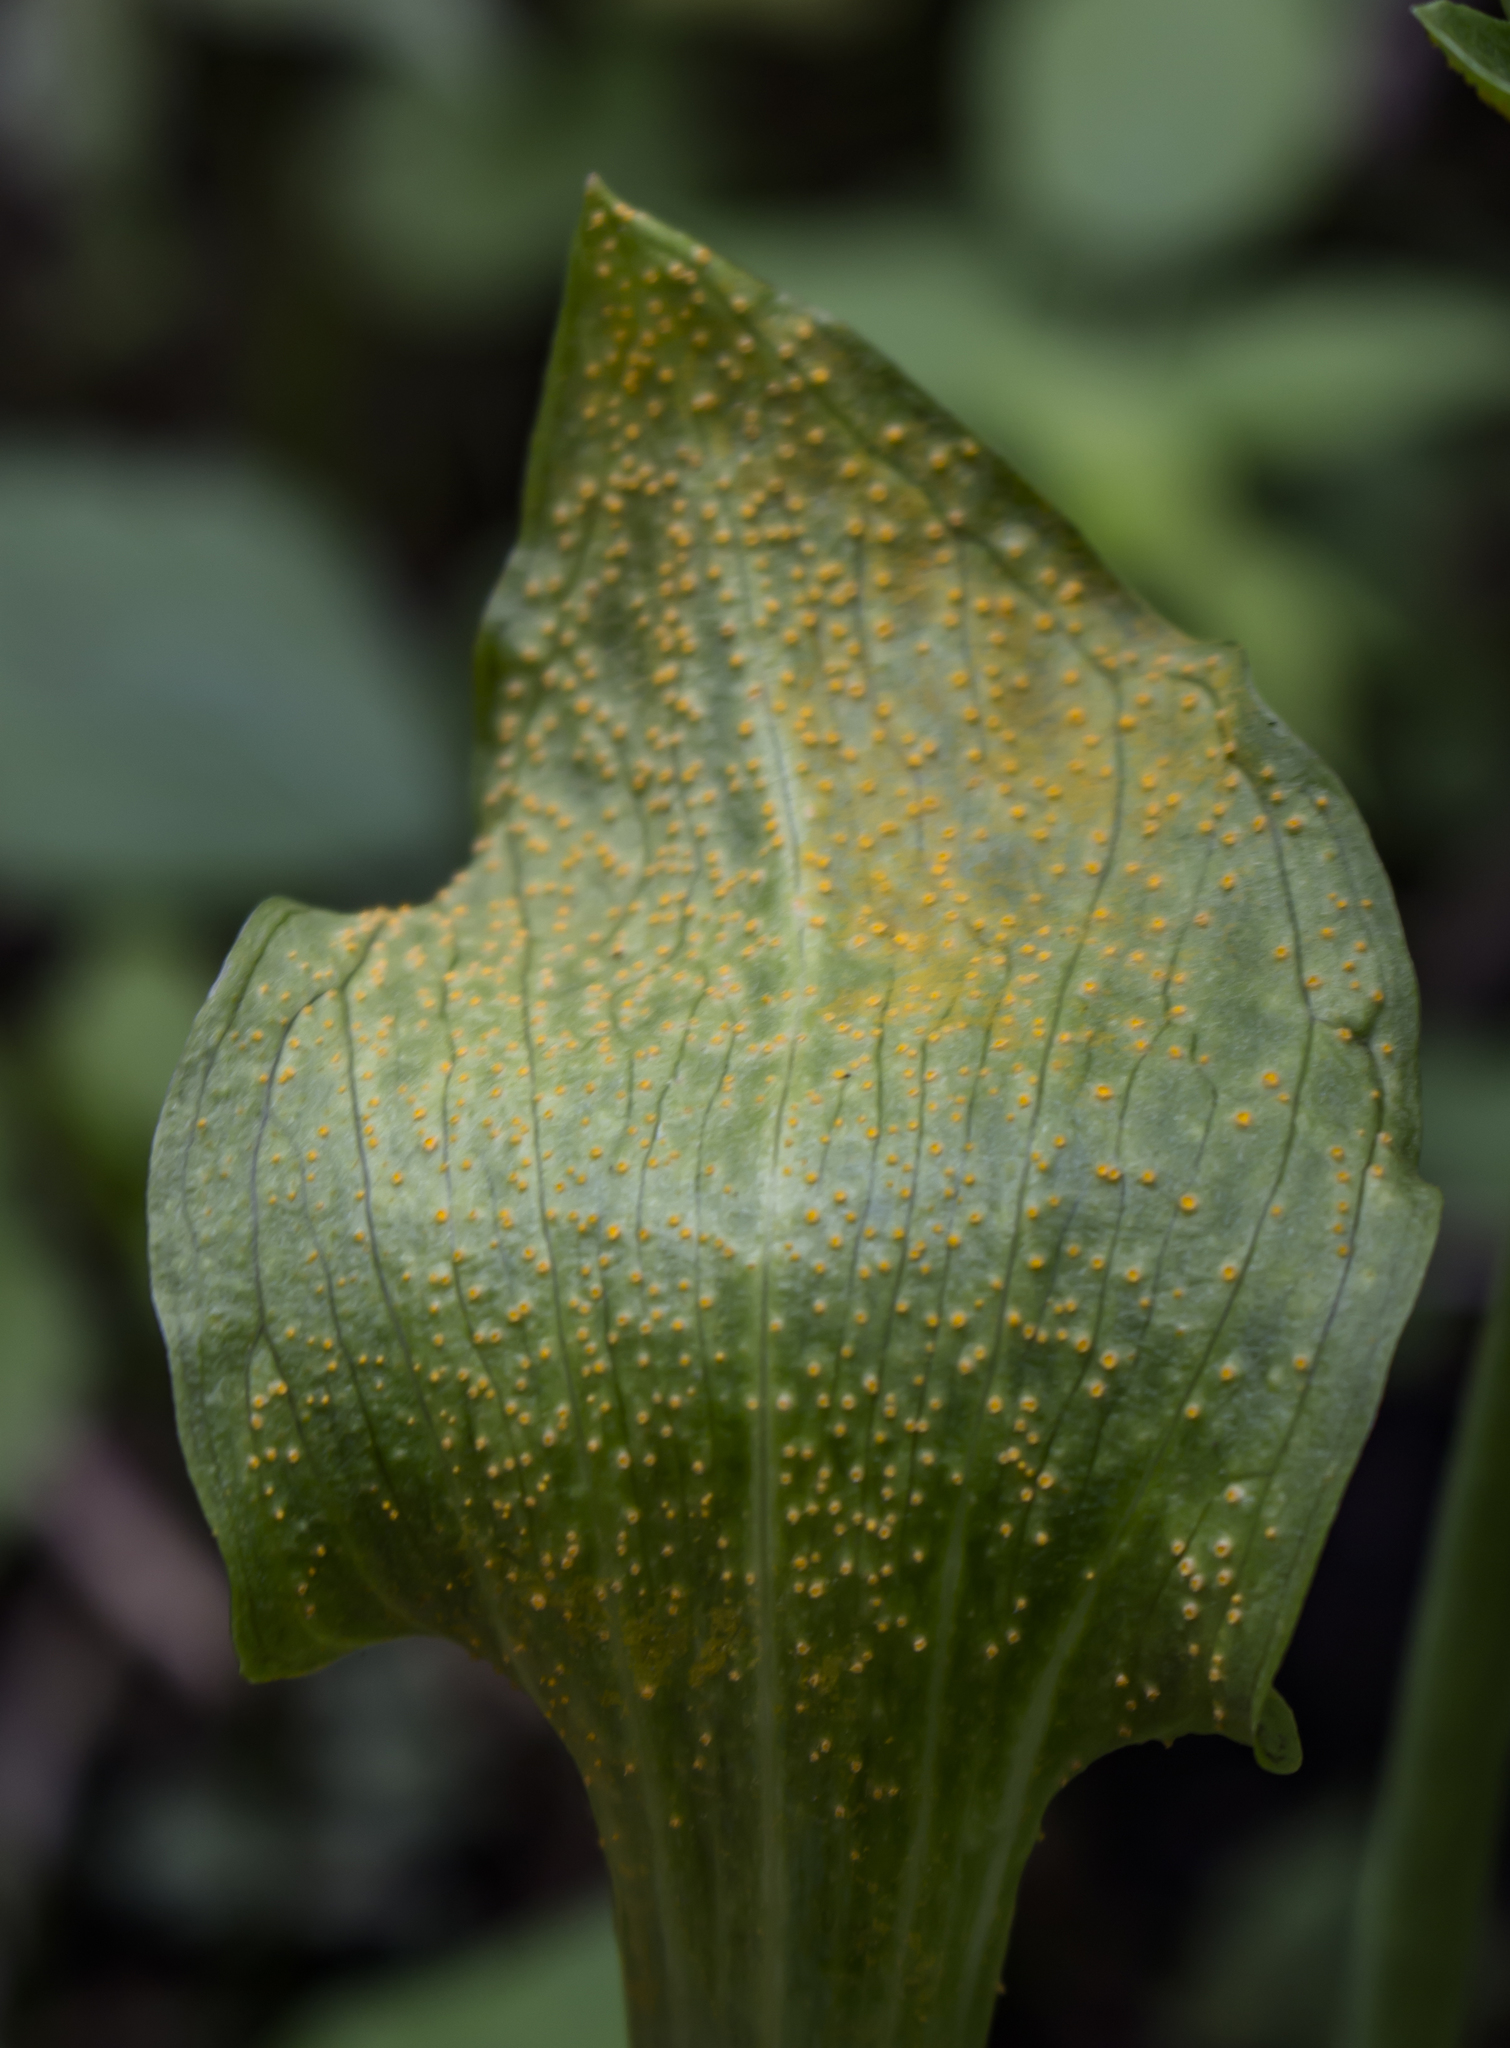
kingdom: Fungi
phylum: Basidiomycota
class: Pucciniomycetes
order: Pucciniales
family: Pucciniaceae
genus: Uromyces
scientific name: Uromyces ari-triphylli
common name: Jack-in-the-pulpit rust
